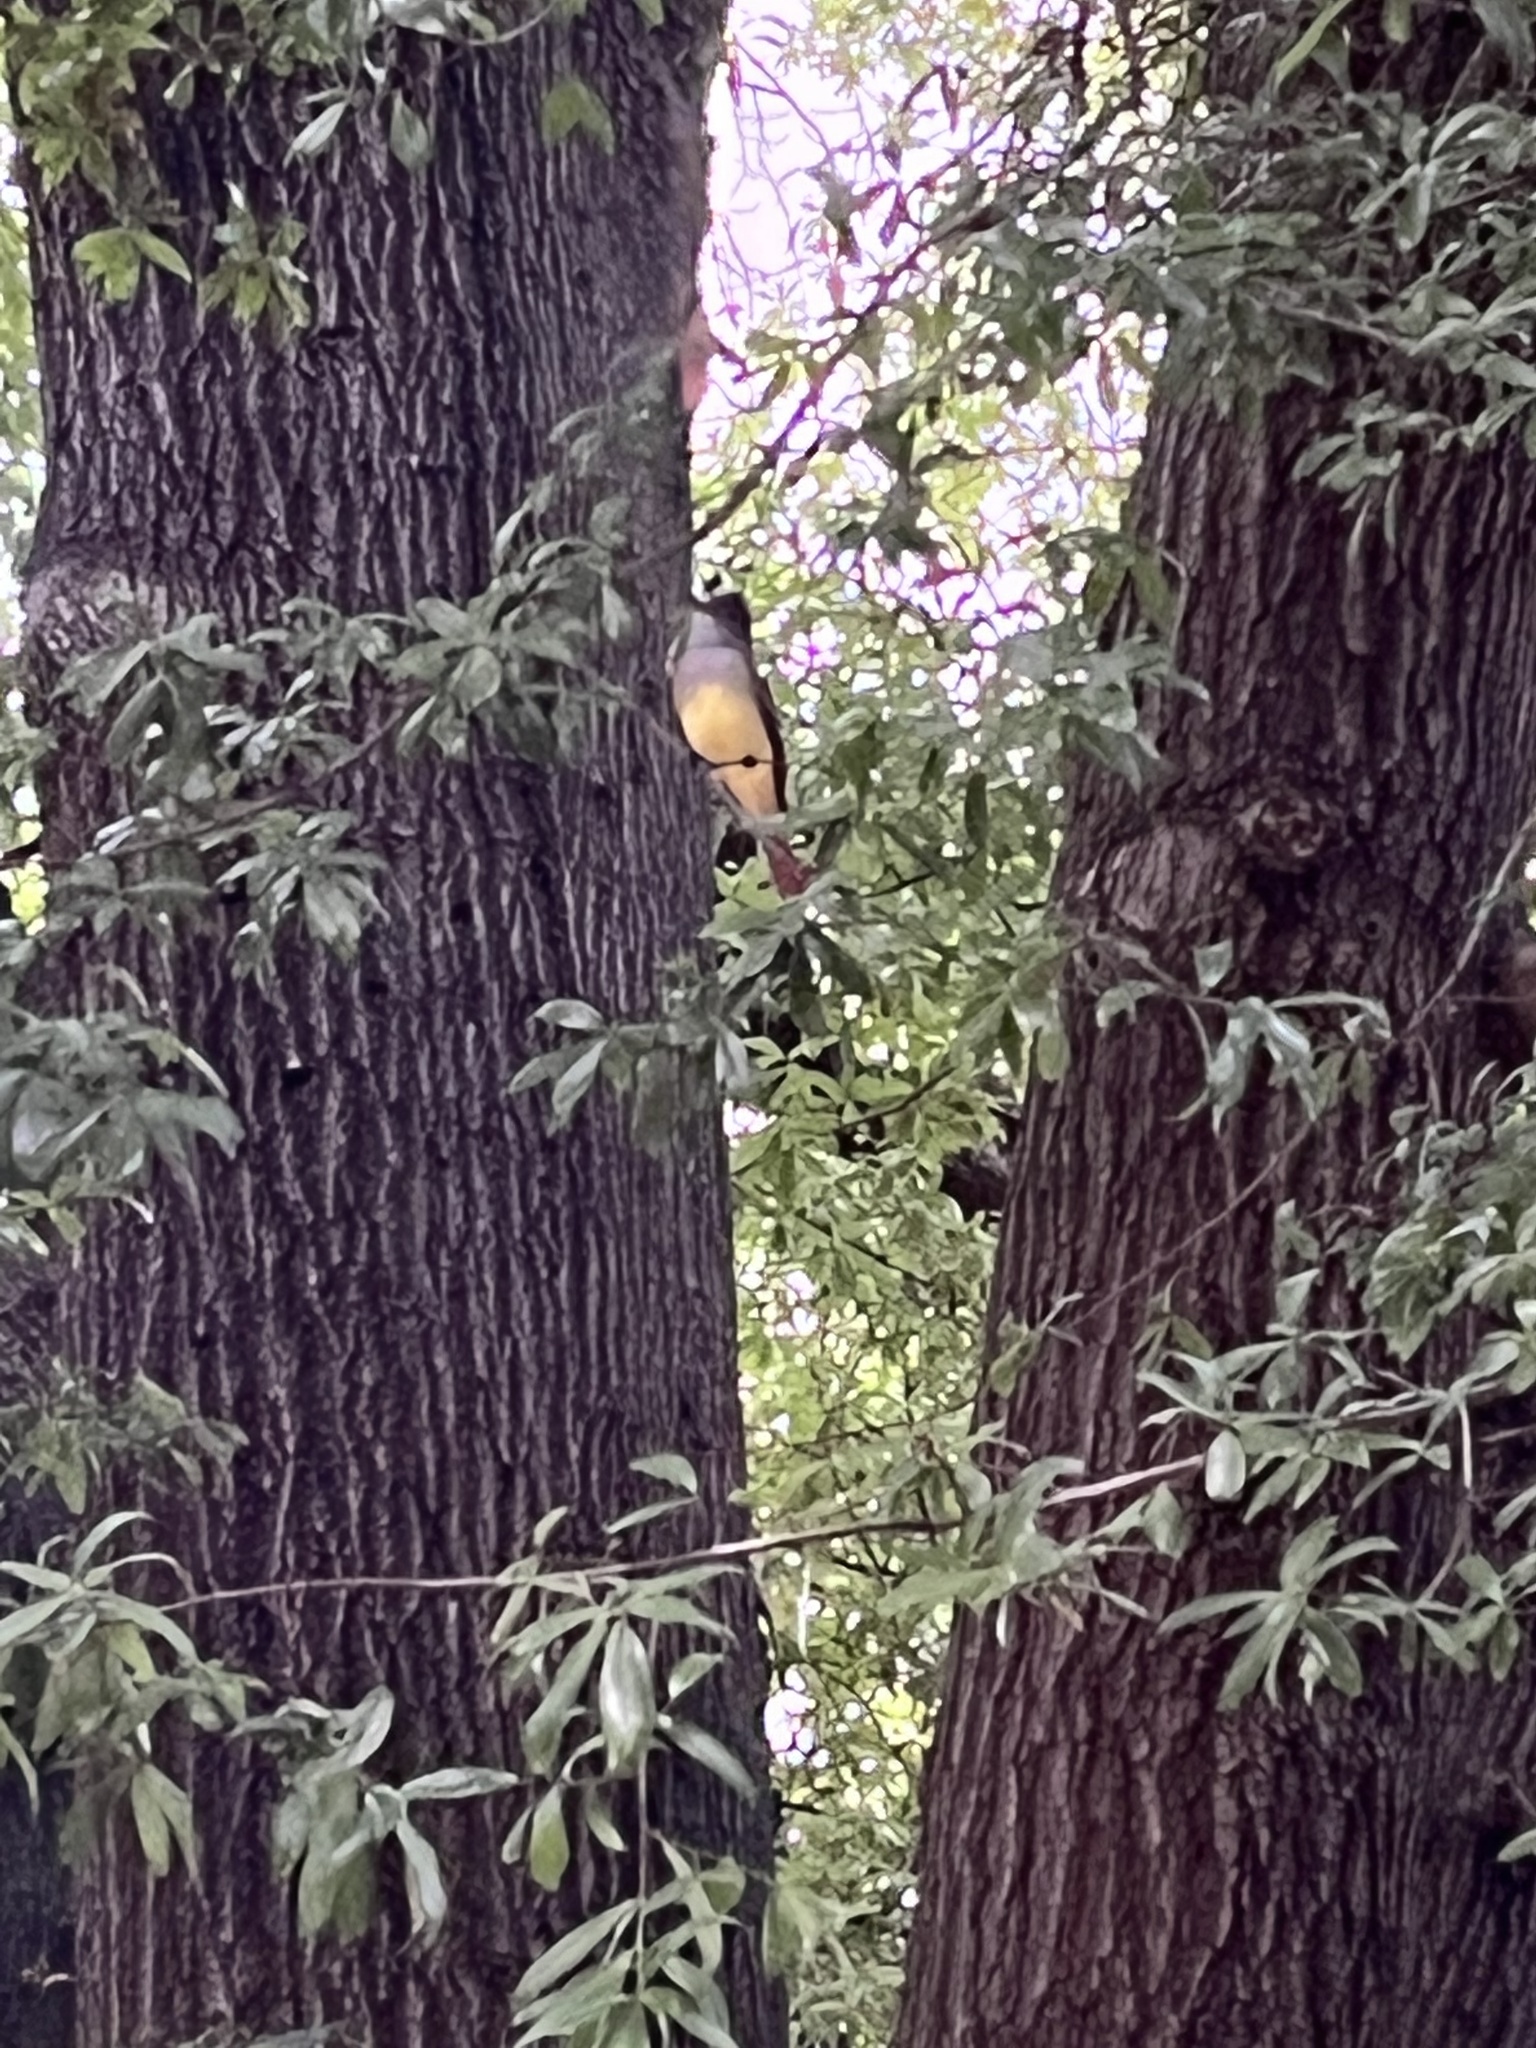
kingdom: Animalia
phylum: Chordata
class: Aves
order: Passeriformes
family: Tyrannidae
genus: Myiarchus
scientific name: Myiarchus crinitus
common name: Great crested flycatcher
